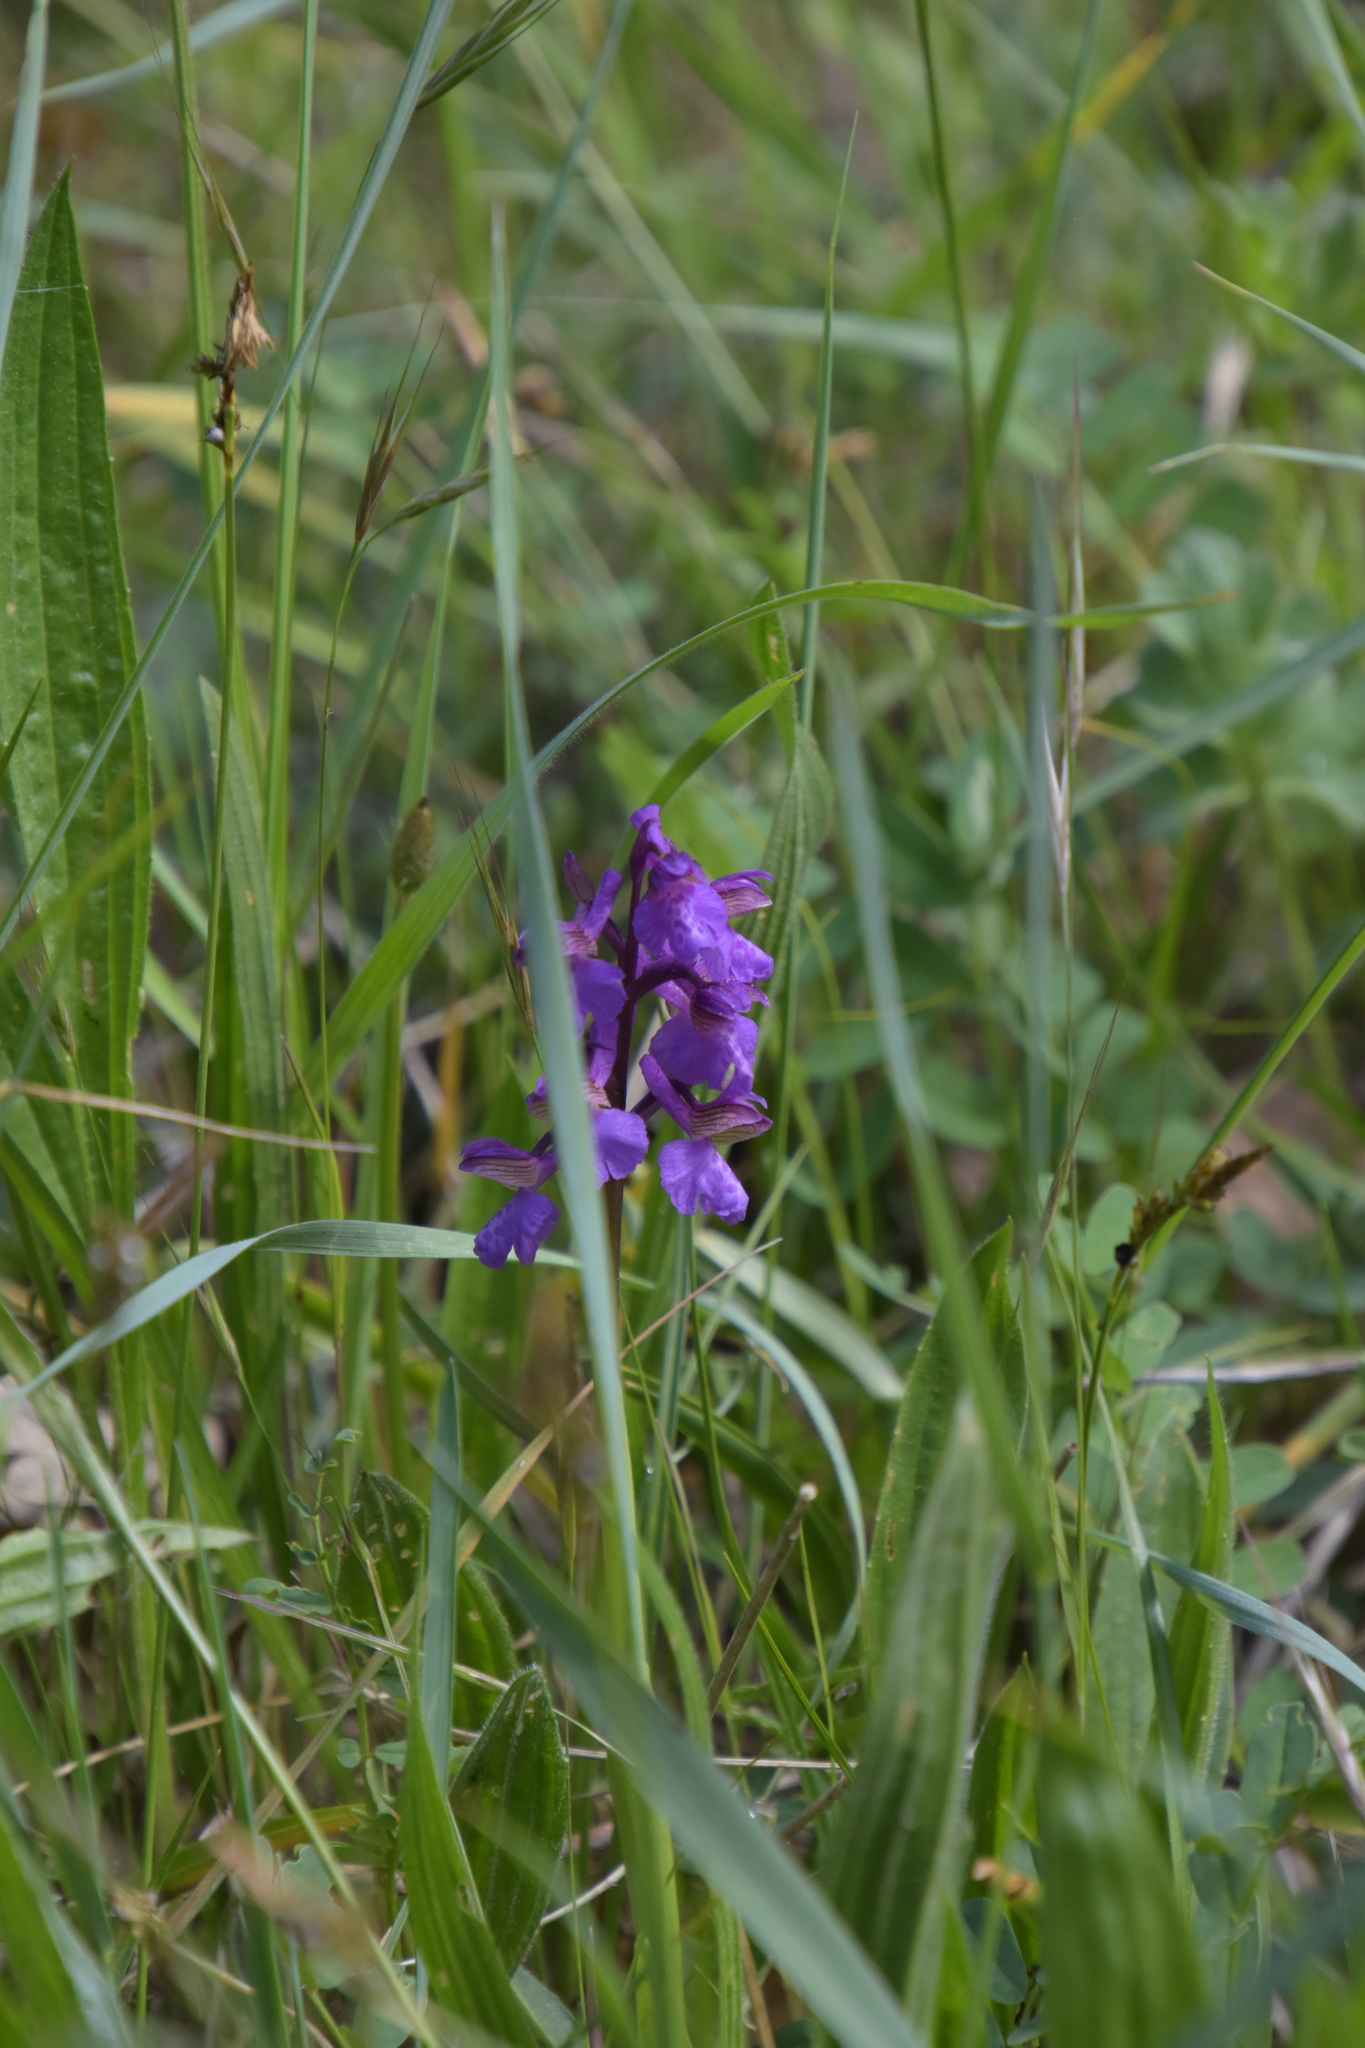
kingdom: Plantae
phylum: Tracheophyta
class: Liliopsida
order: Asparagales
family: Orchidaceae
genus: Anacamptis
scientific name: Anacamptis morio
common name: Green-winged orchid
